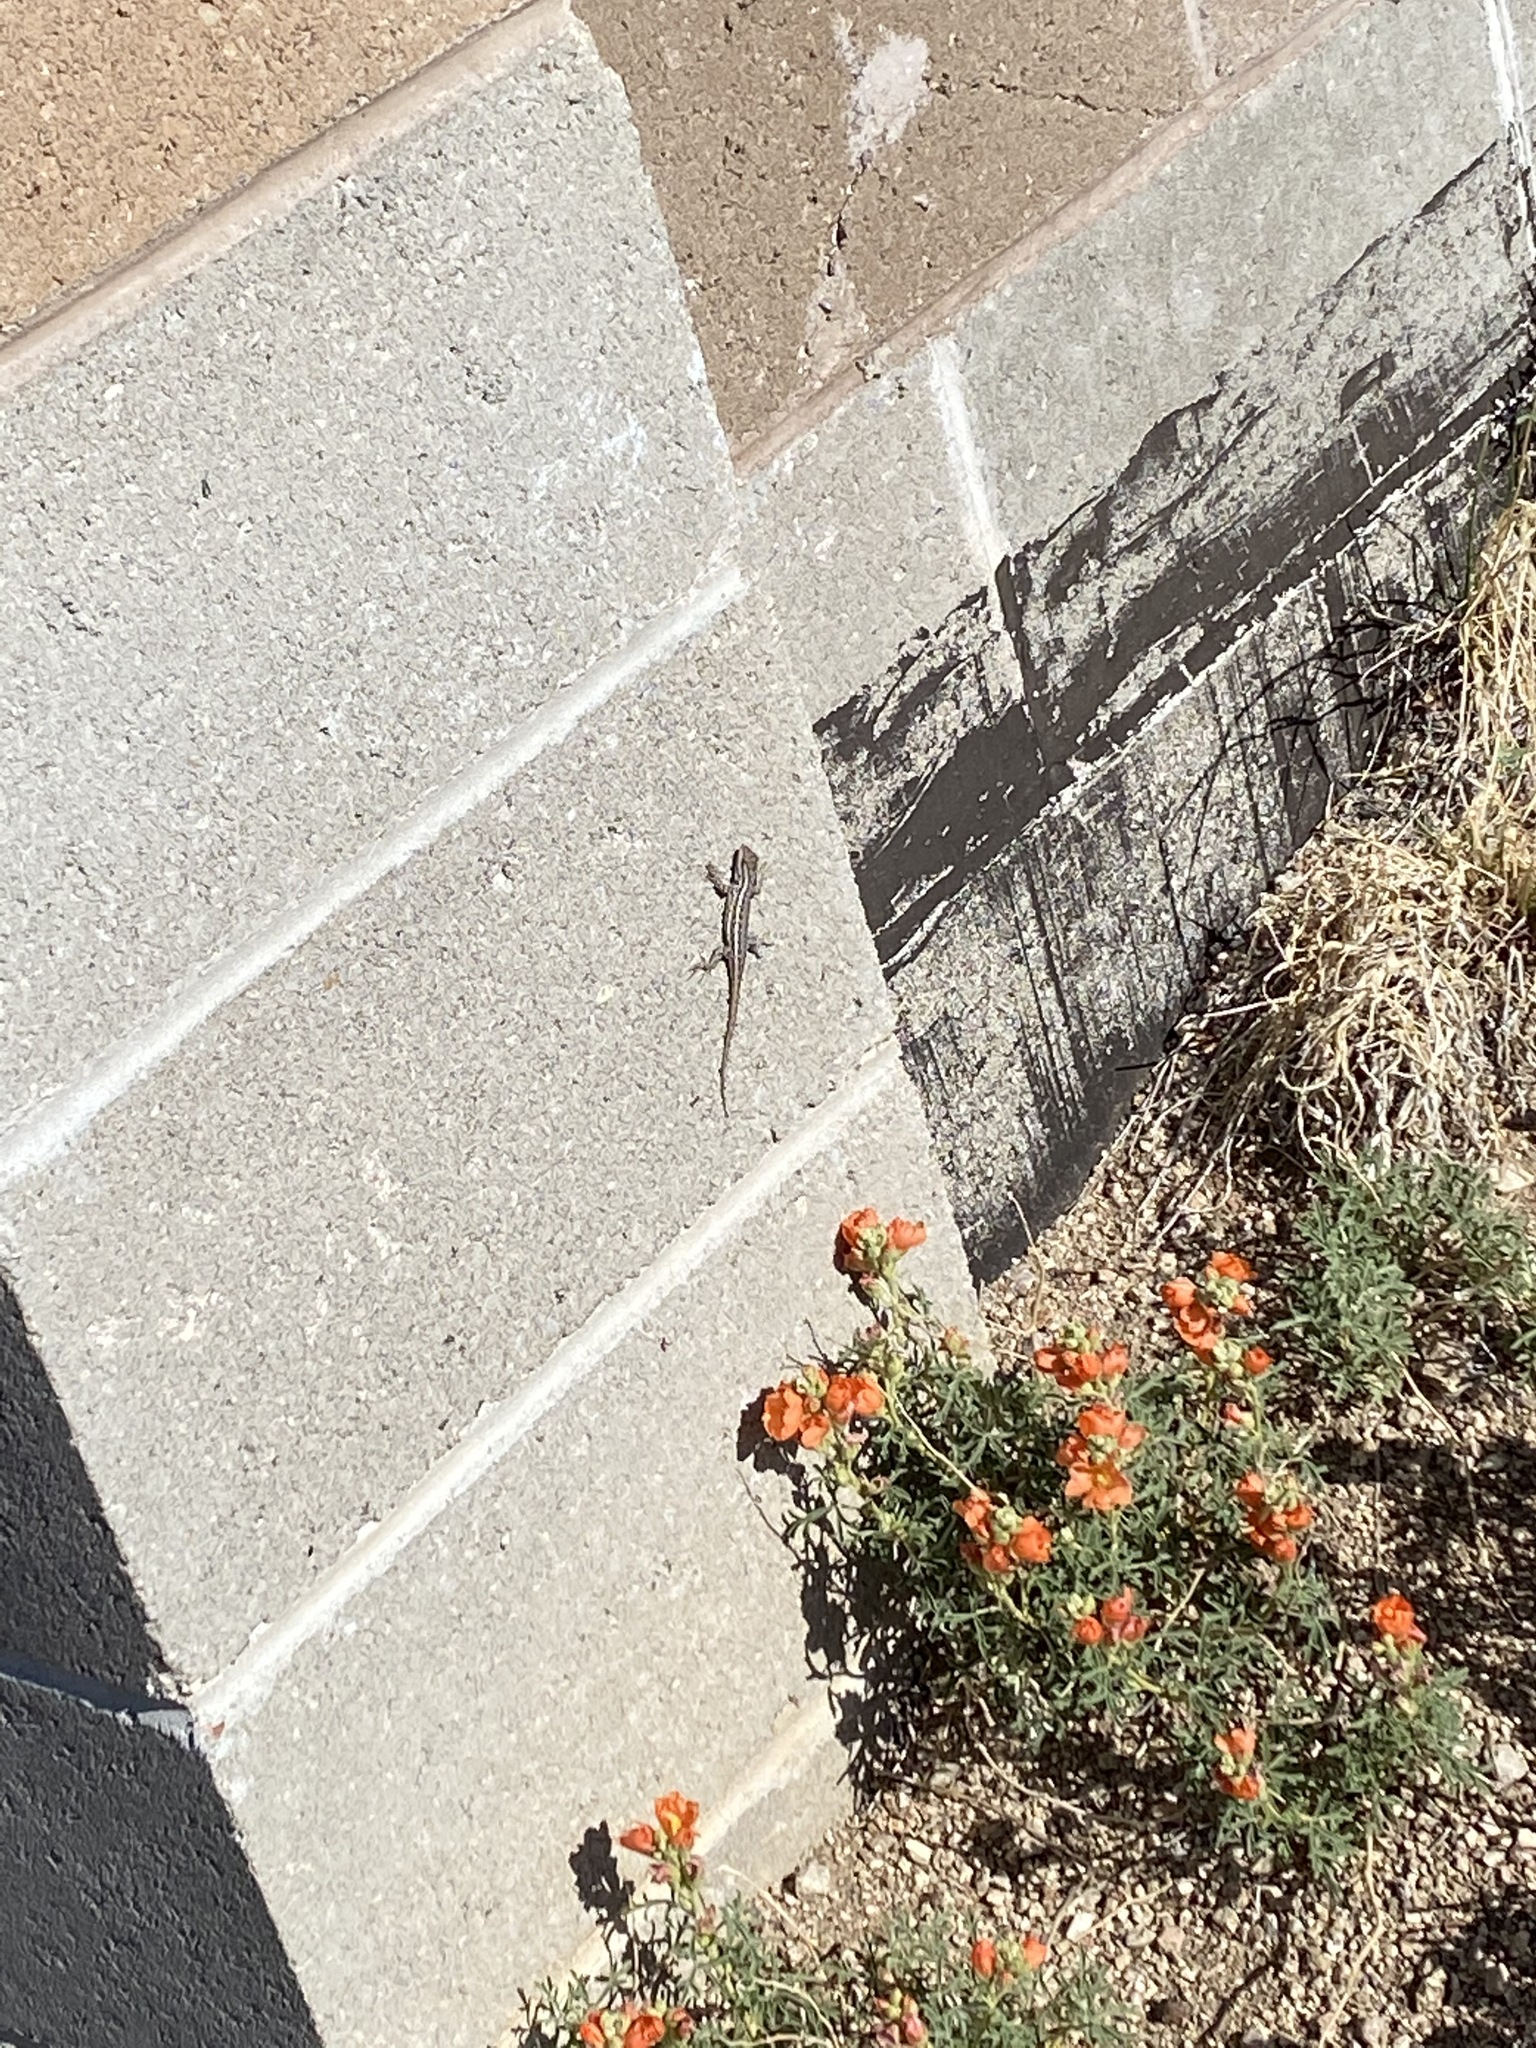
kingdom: Animalia
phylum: Chordata
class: Squamata
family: Phrynosomatidae
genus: Sceloporus
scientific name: Sceloporus cowlesi
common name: White sands prairie lizard
